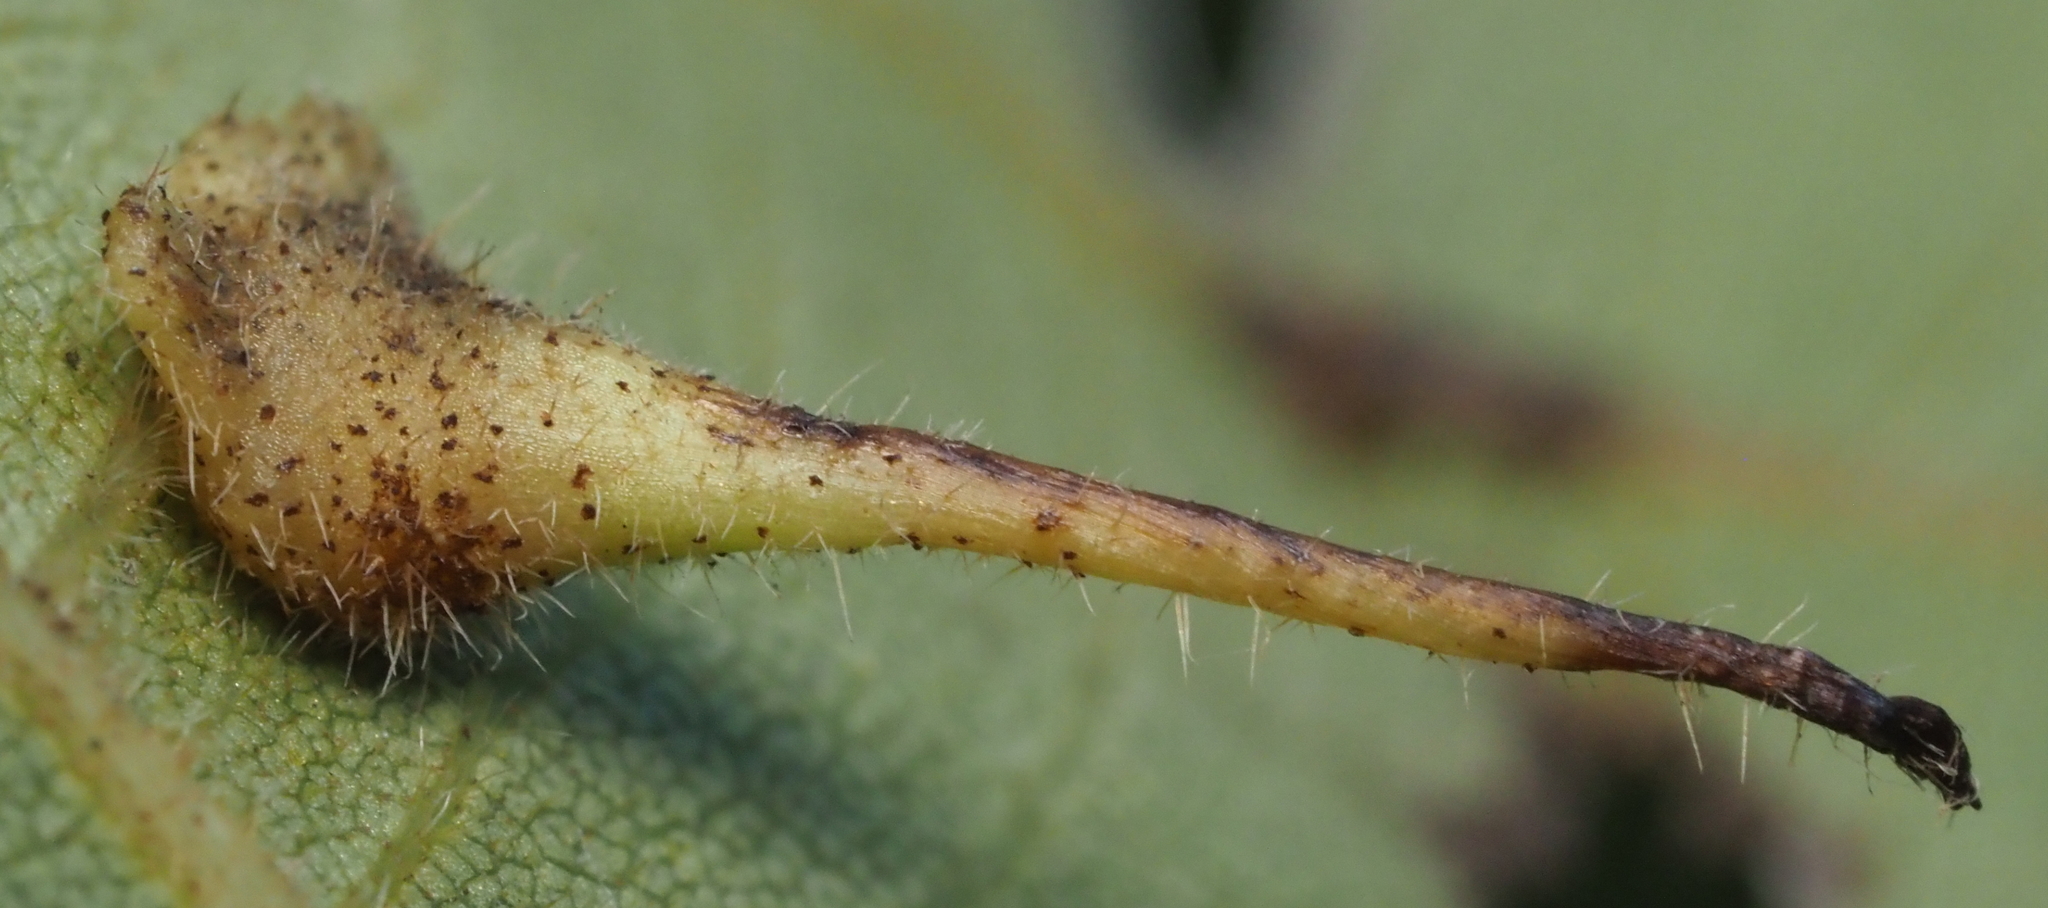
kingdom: Animalia
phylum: Arthropoda
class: Insecta
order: Diptera
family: Cecidomyiidae
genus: Caryomyia
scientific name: Caryomyia inclinata
